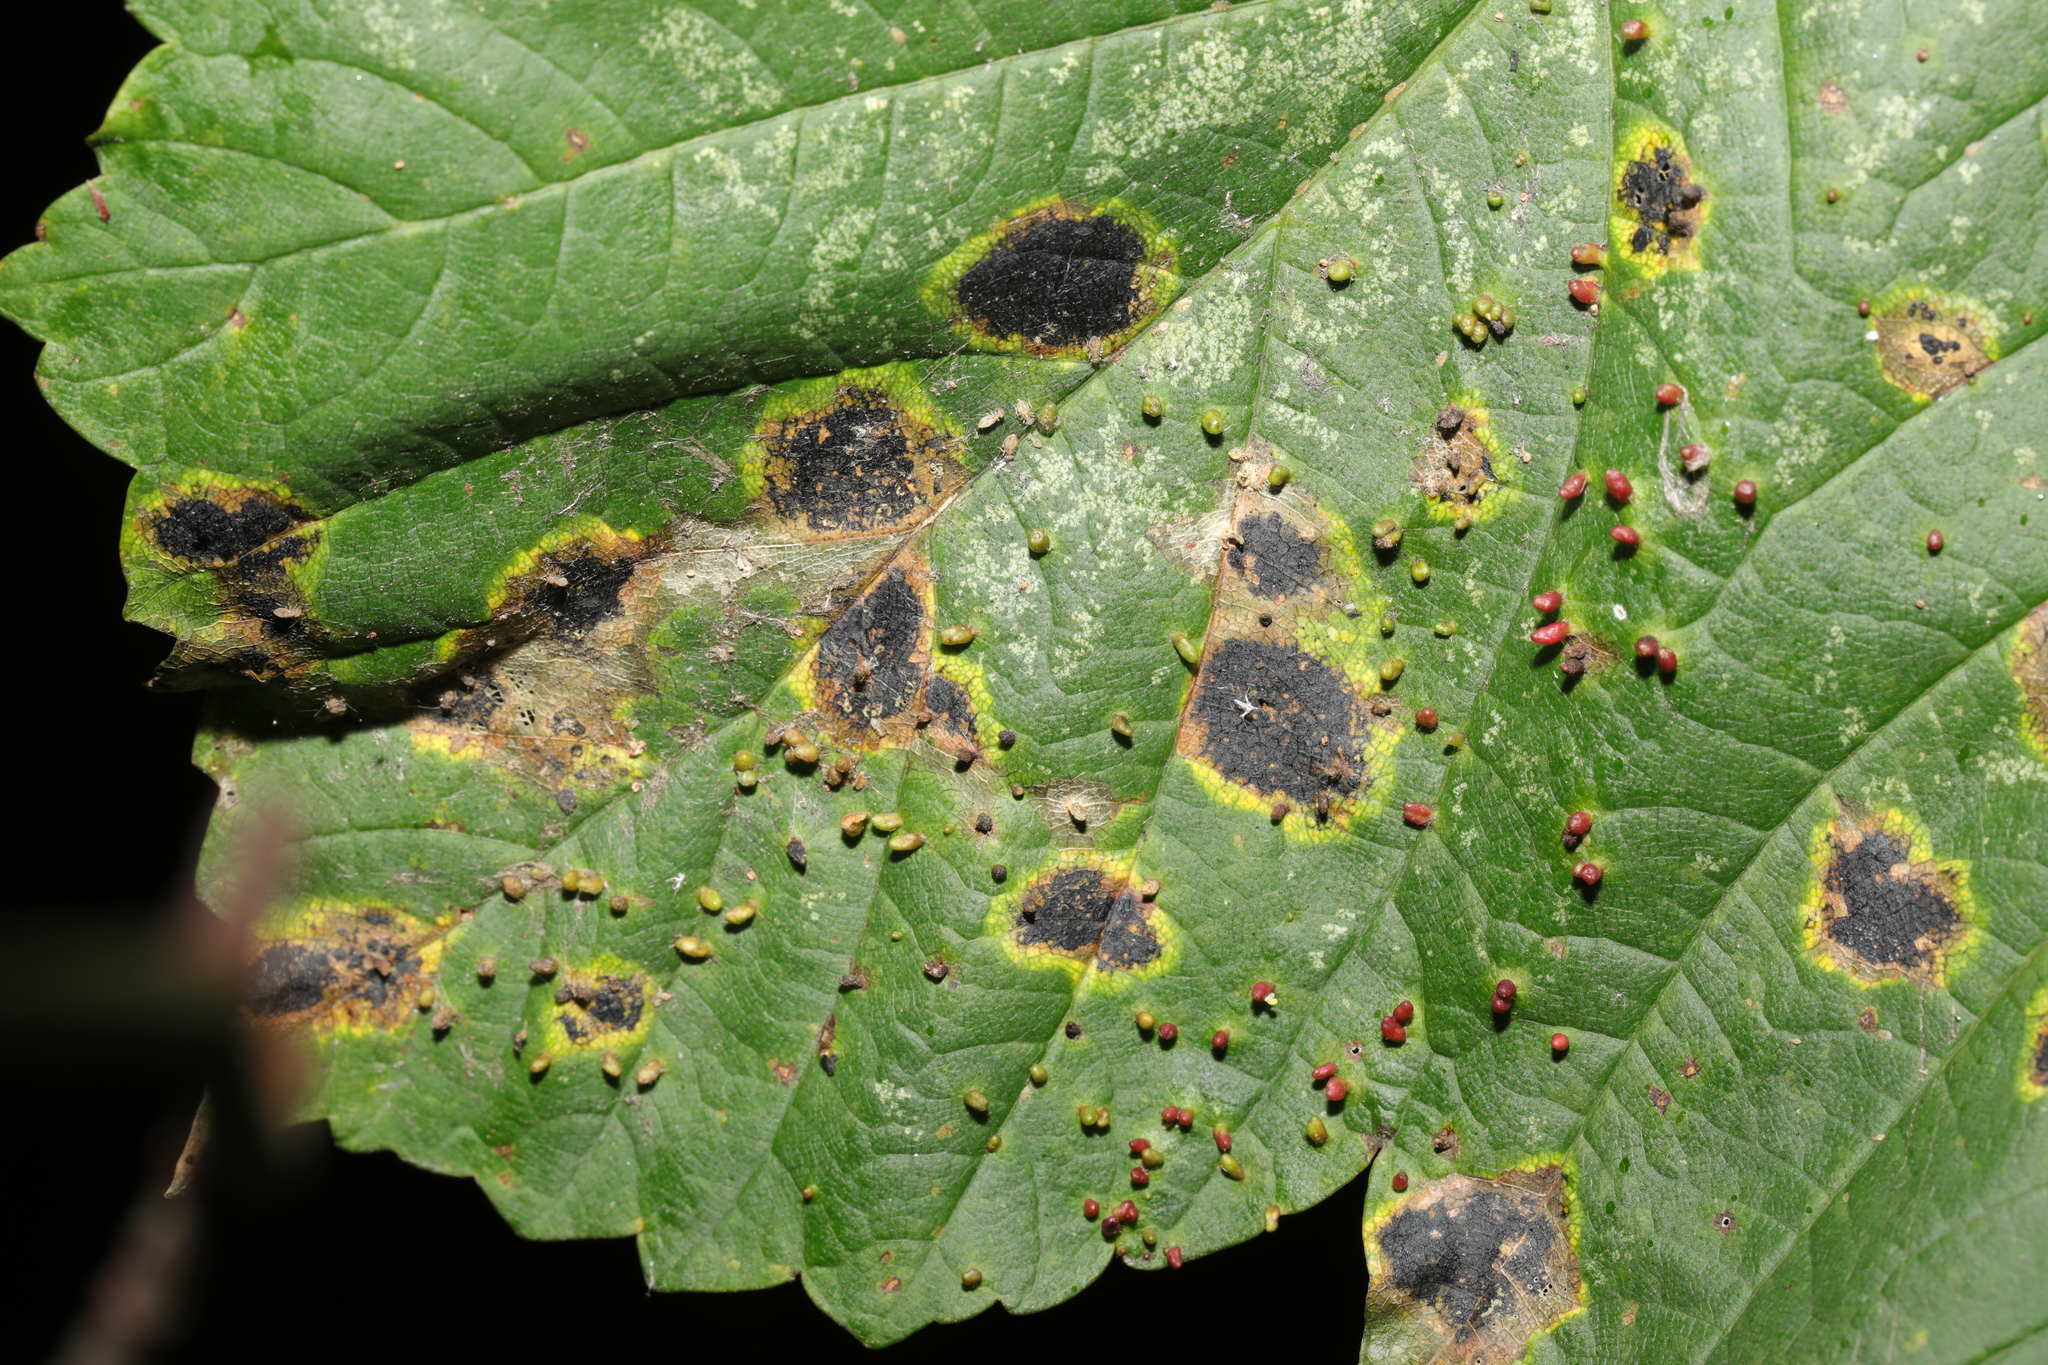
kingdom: Fungi
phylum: Ascomycota
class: Leotiomycetes
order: Rhytismatales
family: Rhytismataceae
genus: Rhytisma
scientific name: Rhytisma acerinum
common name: European tar spot
